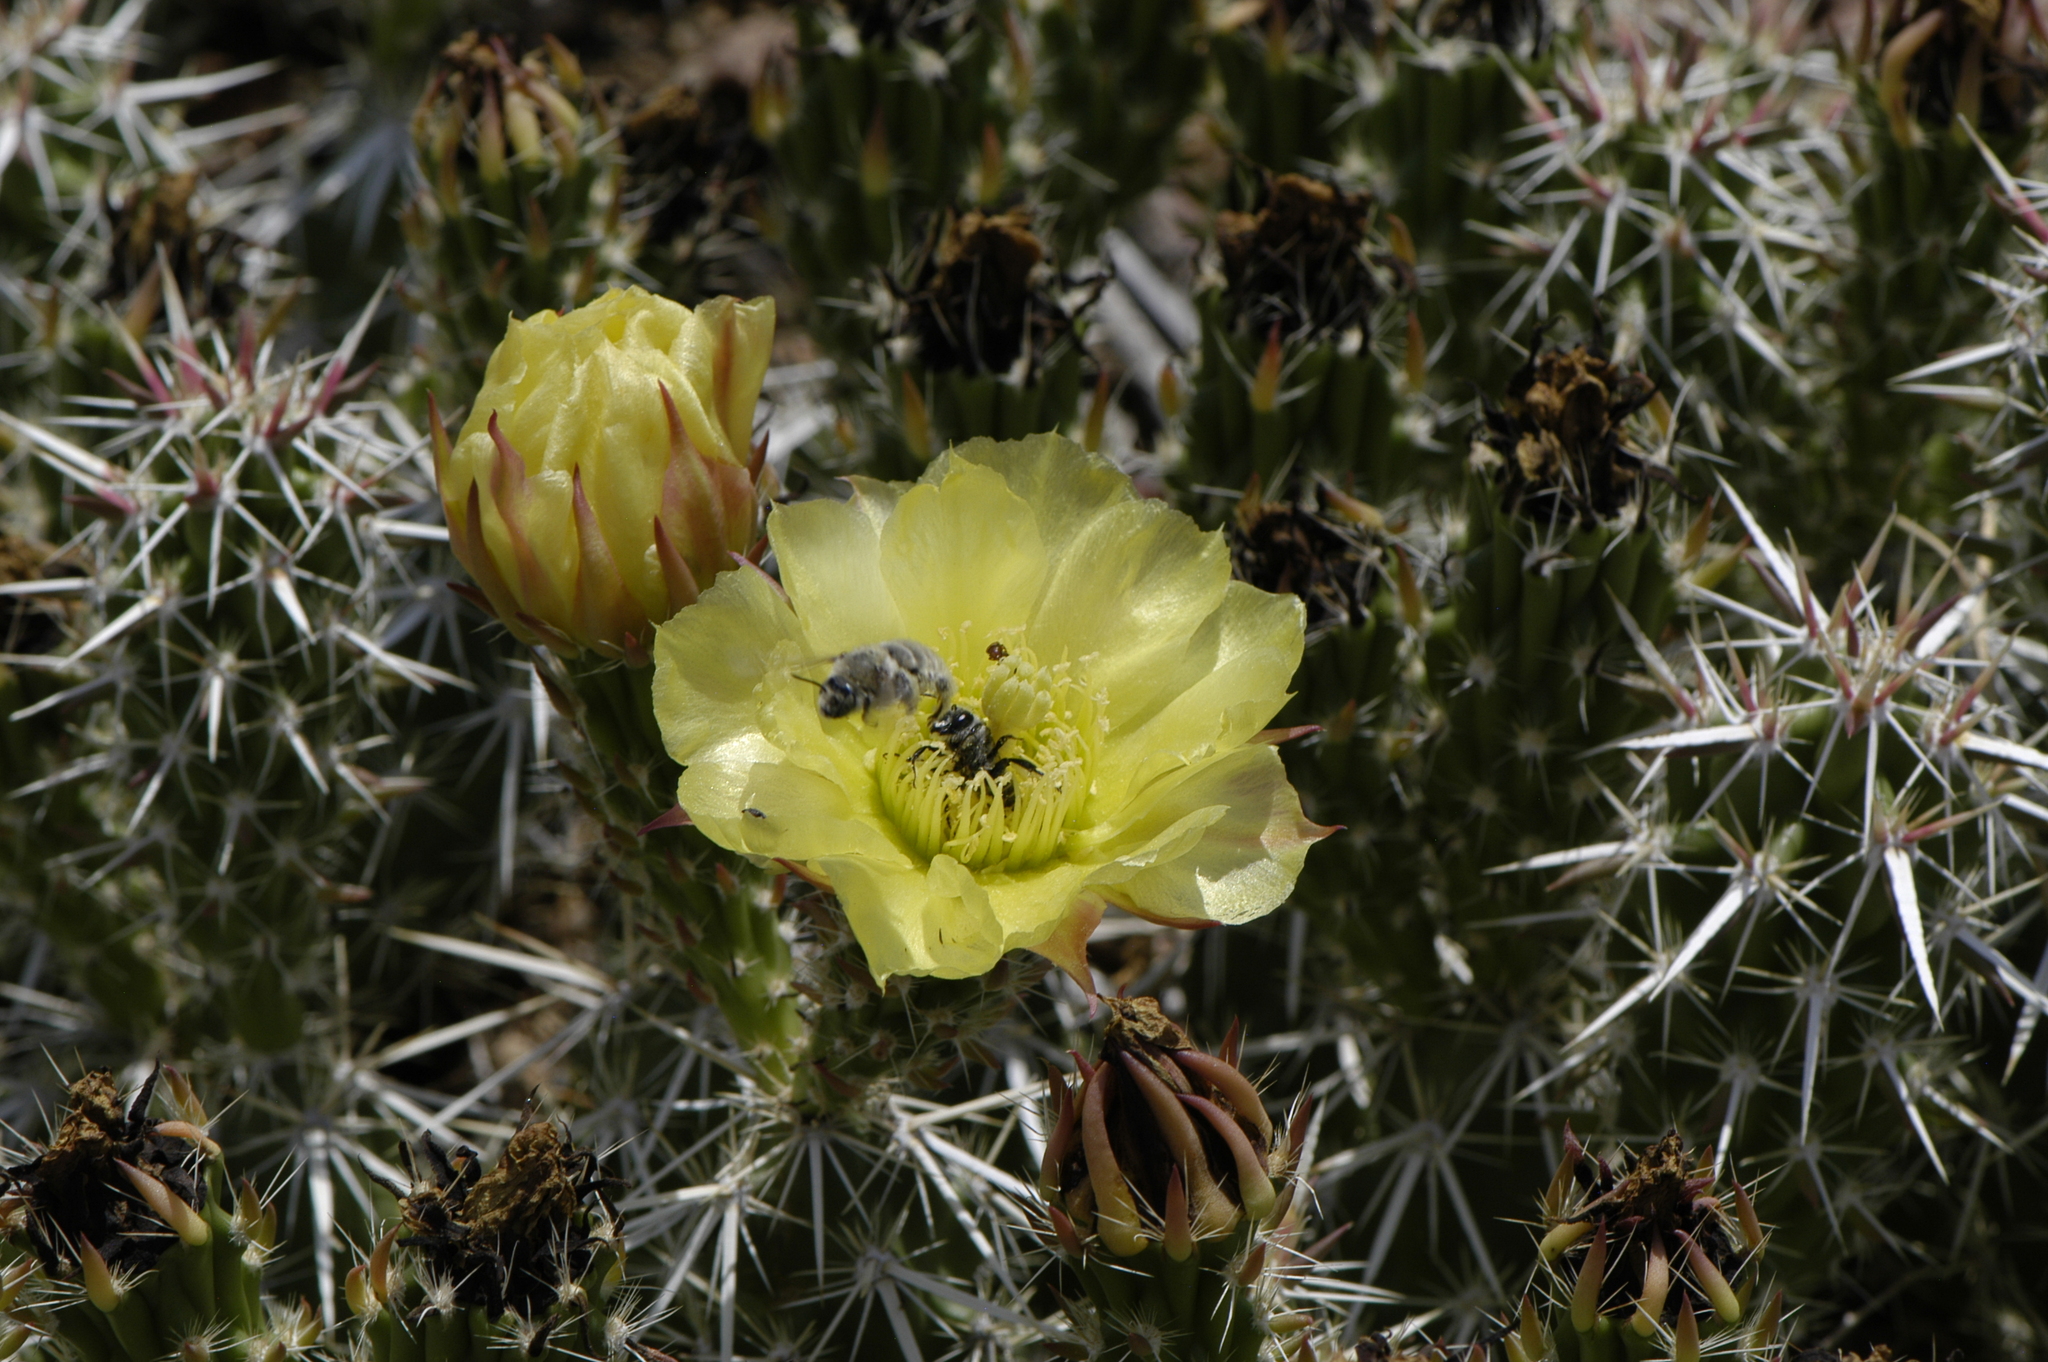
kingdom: Animalia
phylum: Arthropoda
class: Insecta
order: Hymenoptera
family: Apidae
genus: Diadasia
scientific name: Diadasia
